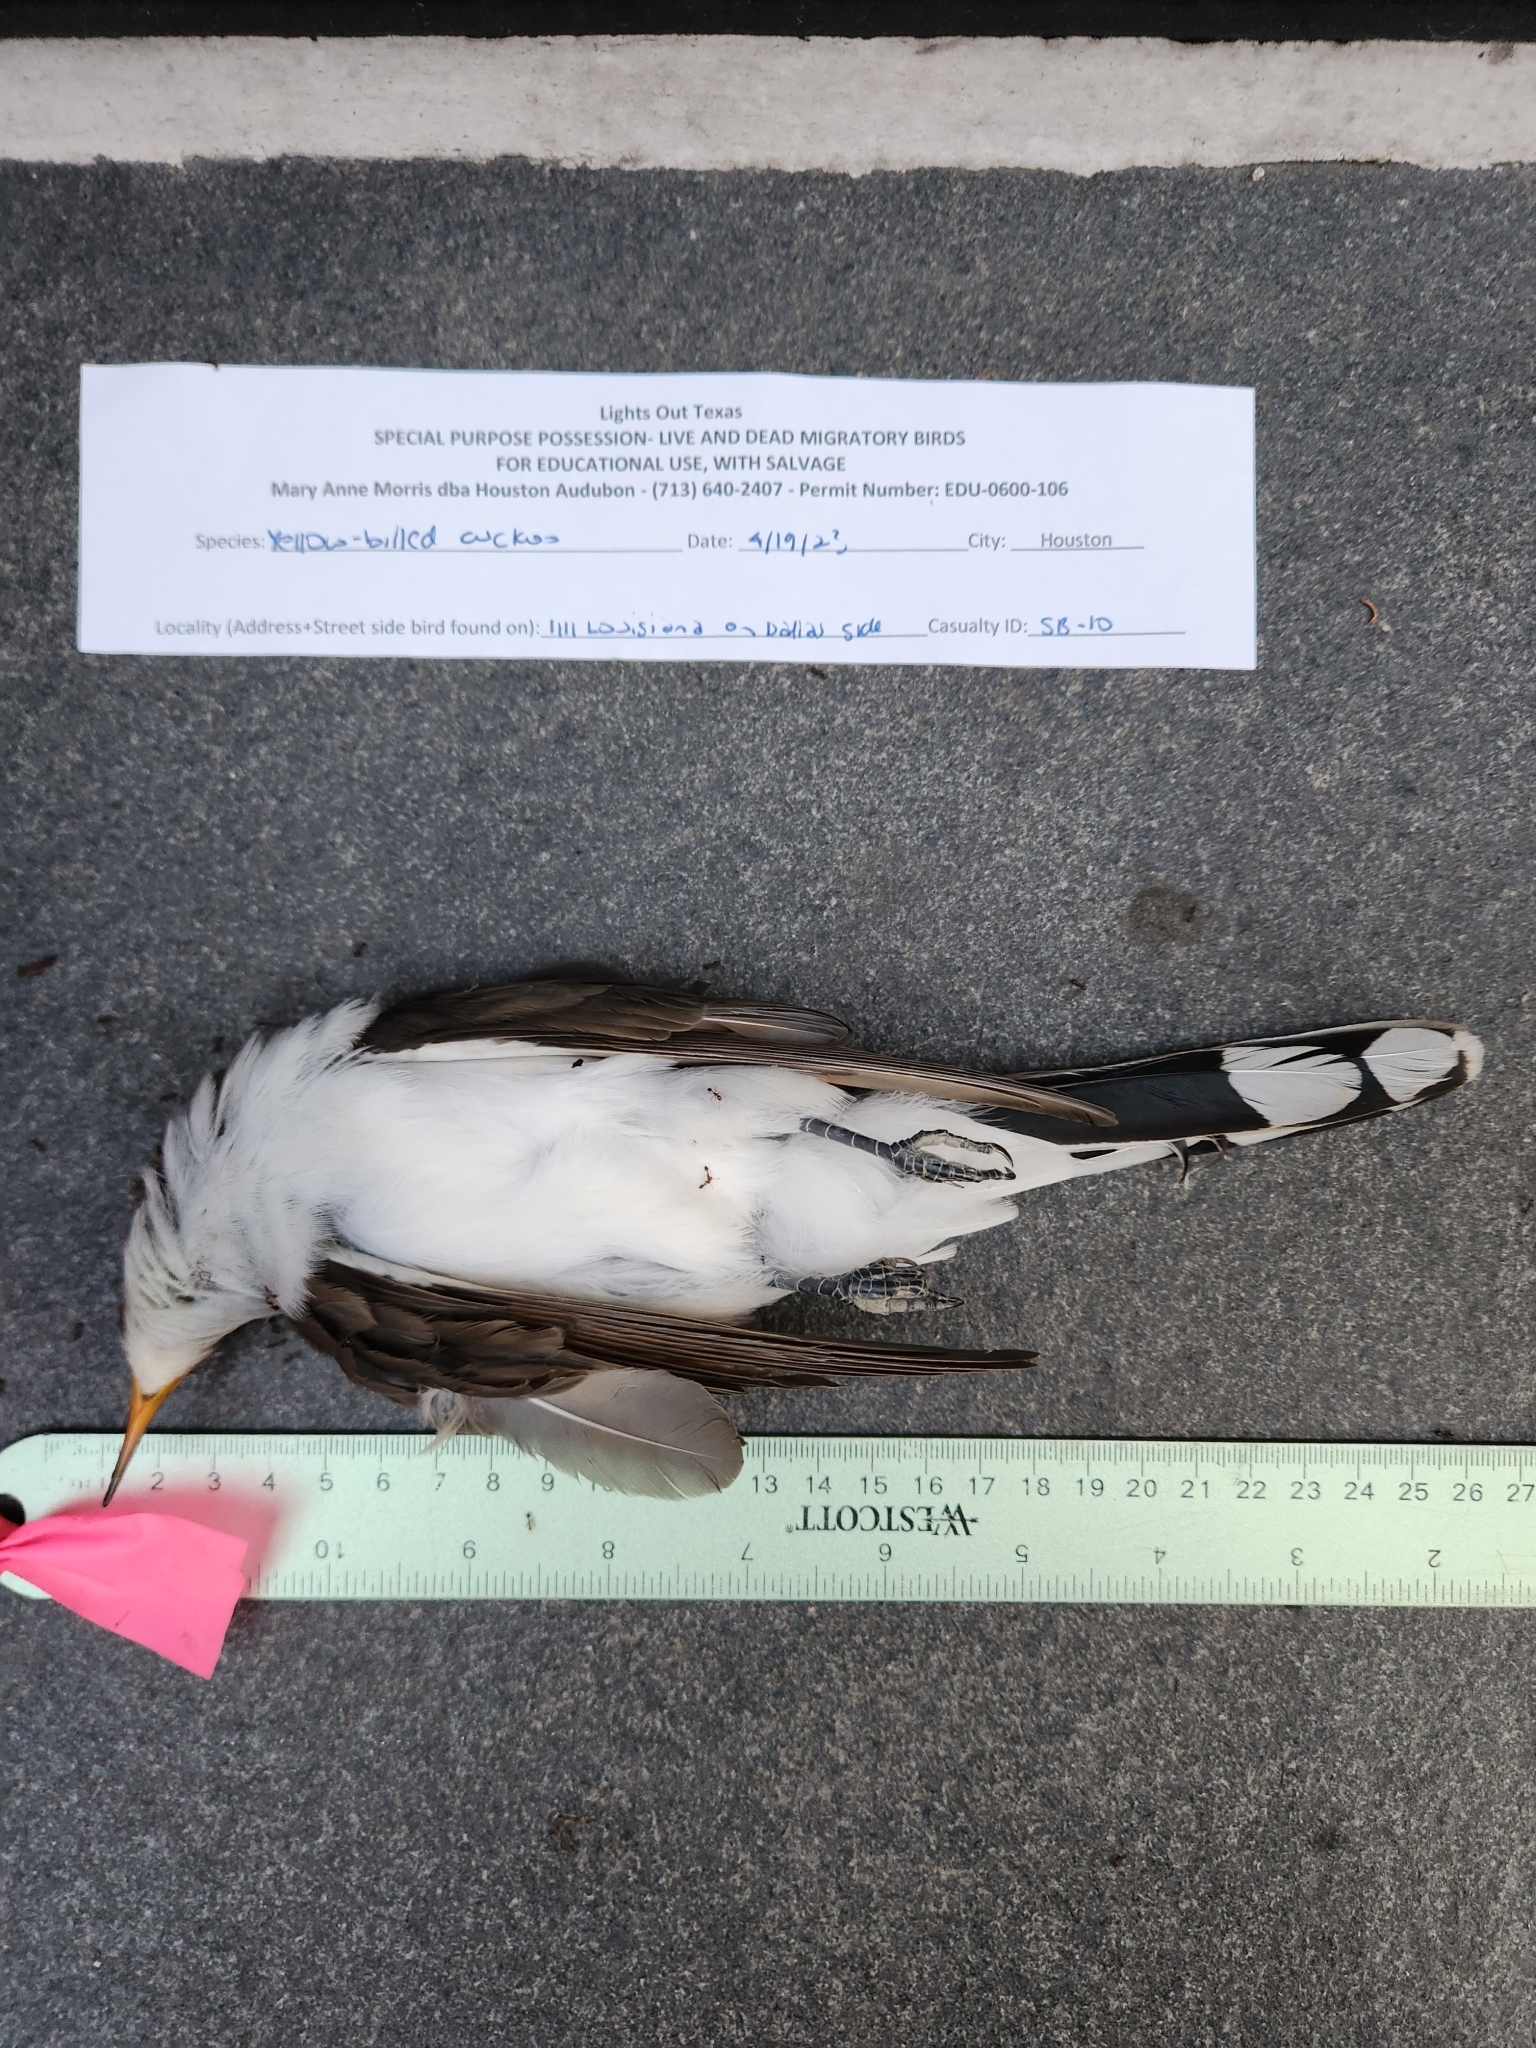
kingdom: Animalia
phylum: Chordata
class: Aves
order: Cuculiformes
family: Cuculidae
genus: Coccyzus
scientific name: Coccyzus americanus
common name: Yellow-billed cuckoo
